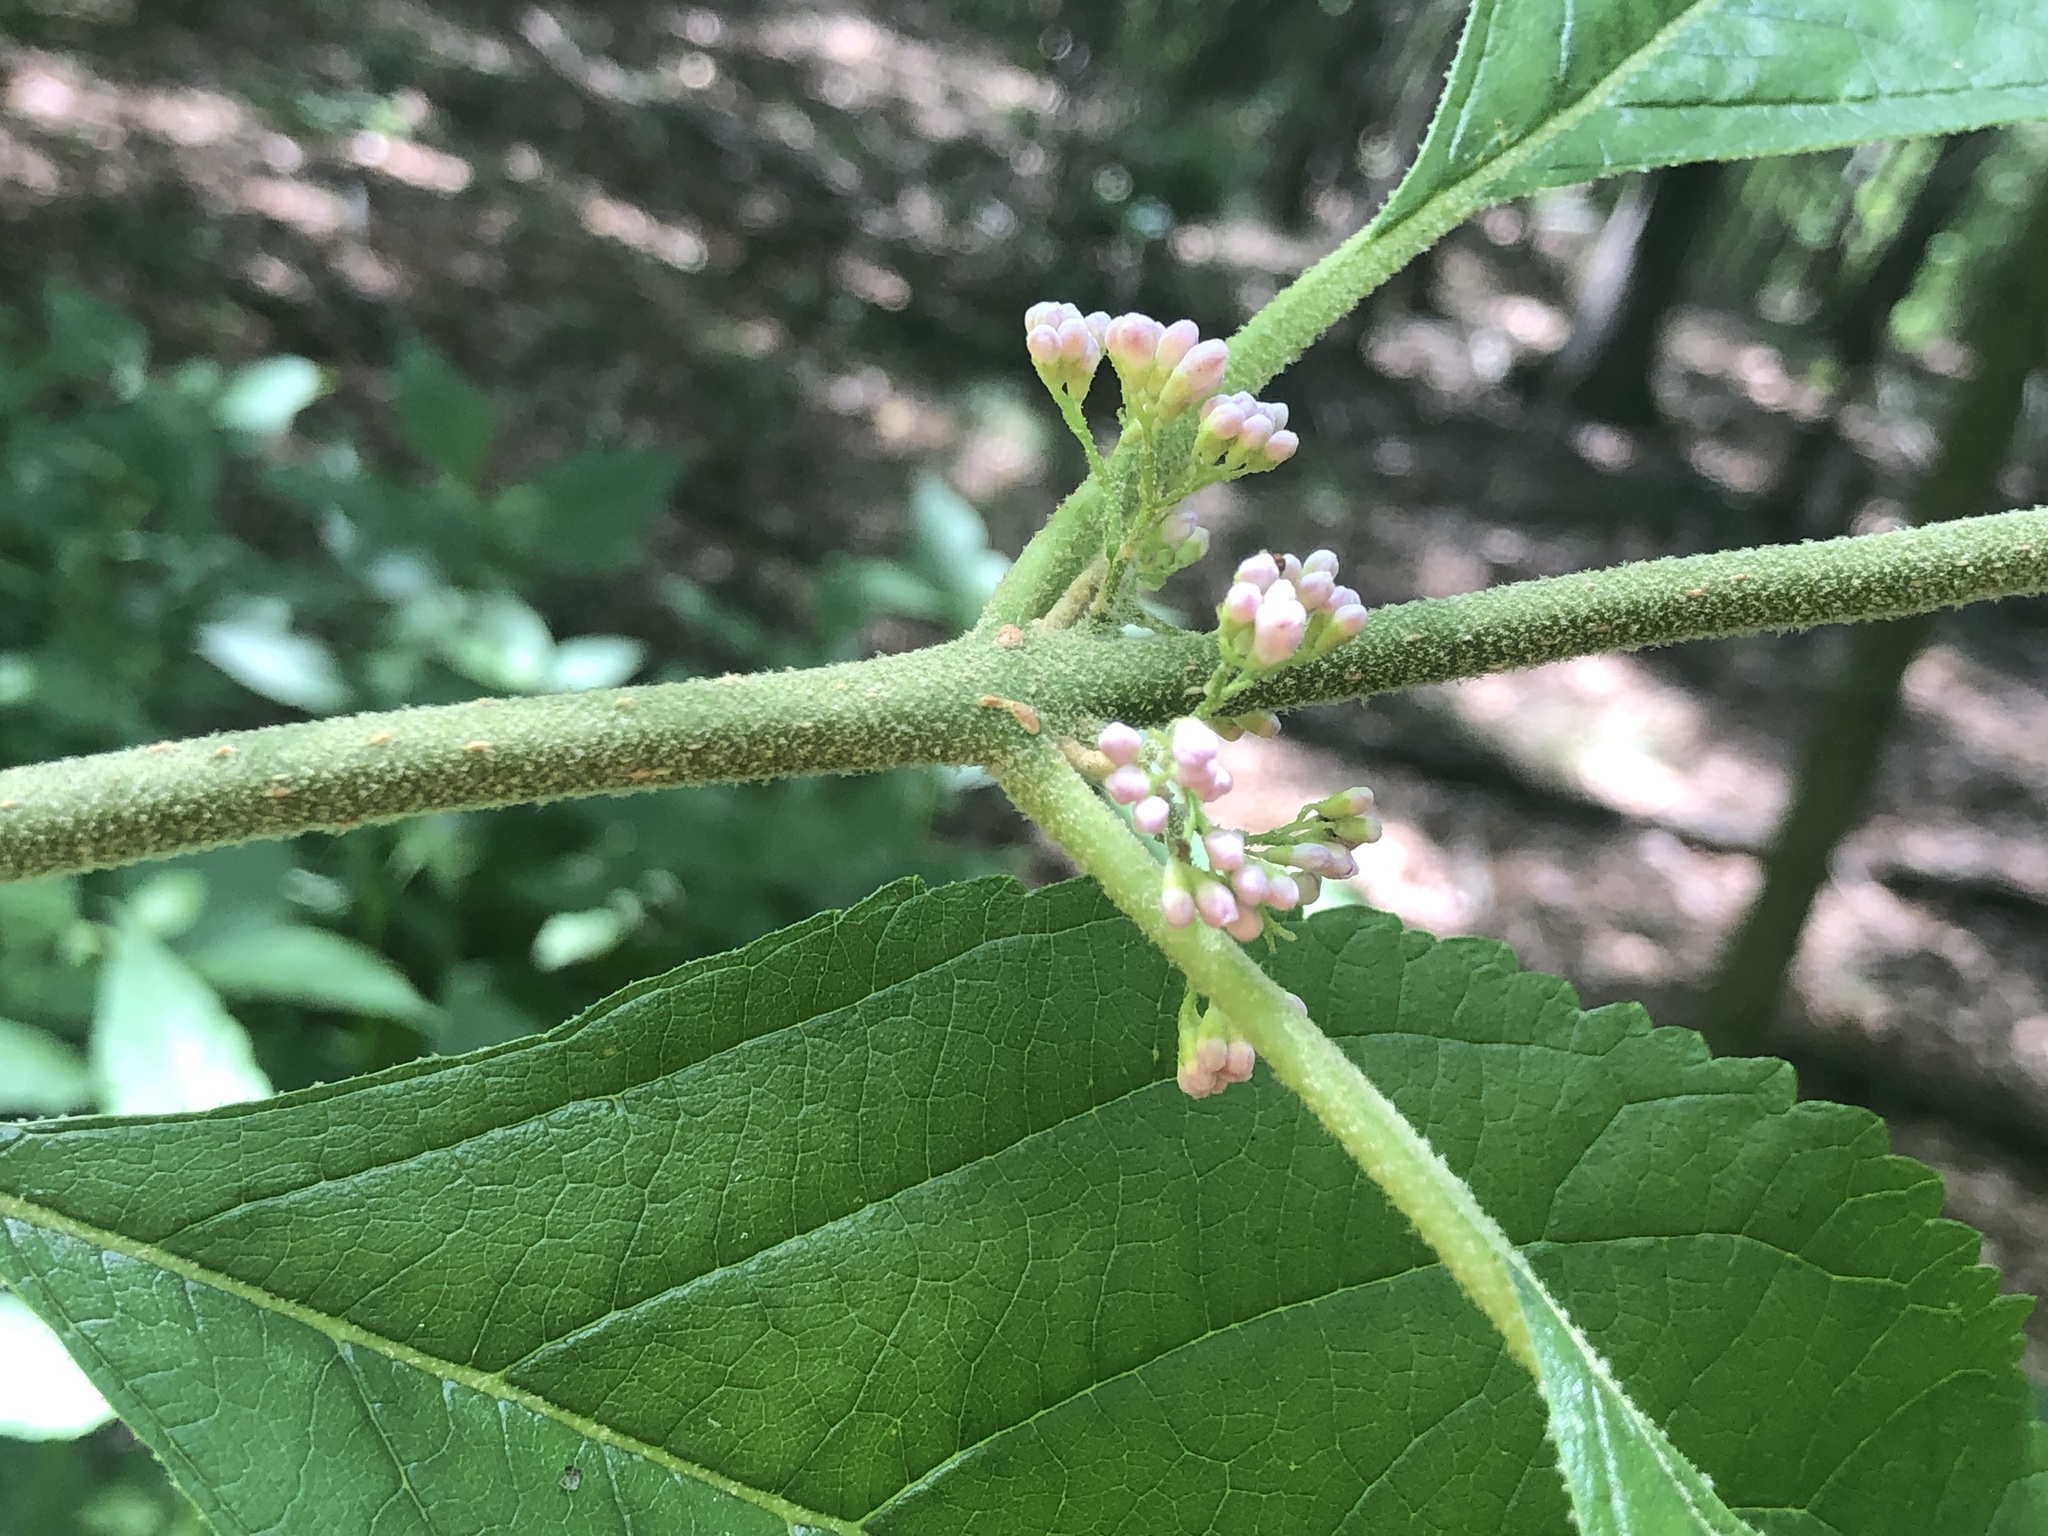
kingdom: Plantae
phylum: Tracheophyta
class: Magnoliopsida
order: Lamiales
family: Lamiaceae
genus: Callicarpa
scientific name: Callicarpa americana
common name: American beautyberry
